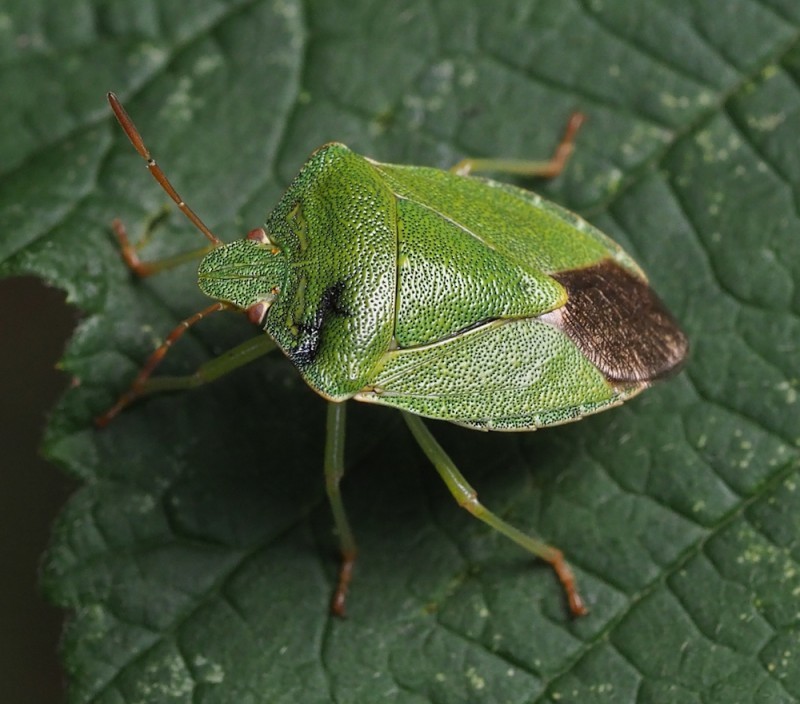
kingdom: Animalia
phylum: Arthropoda
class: Insecta
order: Hemiptera
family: Pentatomidae
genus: Palomena
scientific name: Palomena prasina
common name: Green shieldbug
